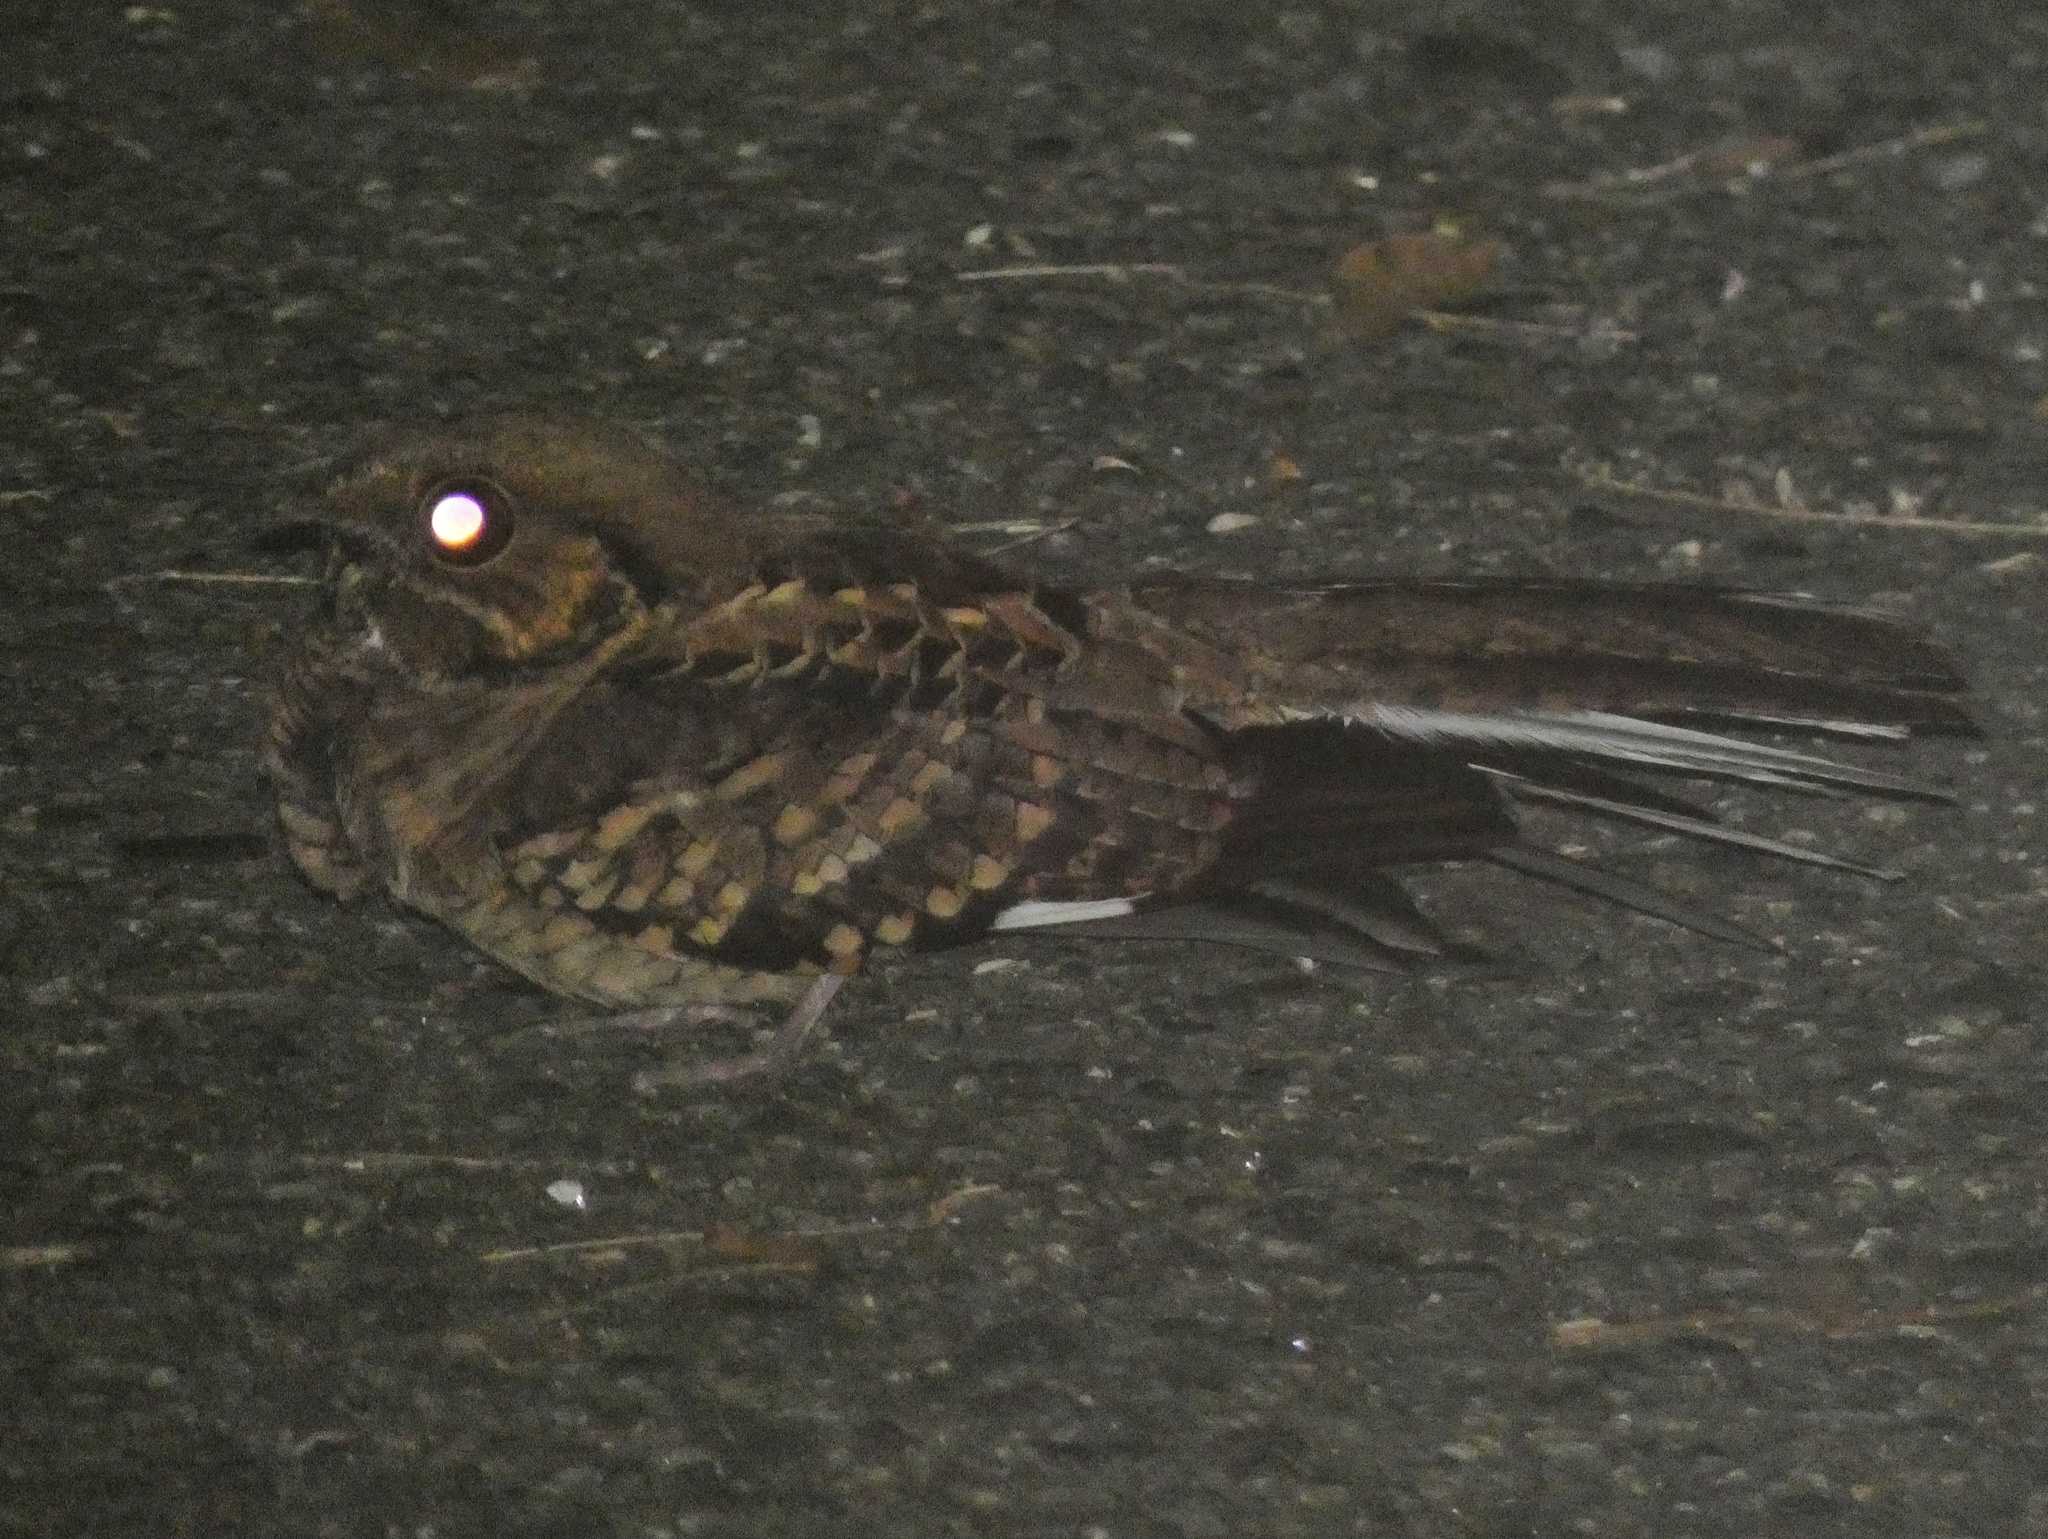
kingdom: Animalia
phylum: Chordata
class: Aves
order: Caprimulgiformes
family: Caprimulgidae
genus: Nyctidromus
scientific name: Nyctidromus albicollis
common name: Pauraque
